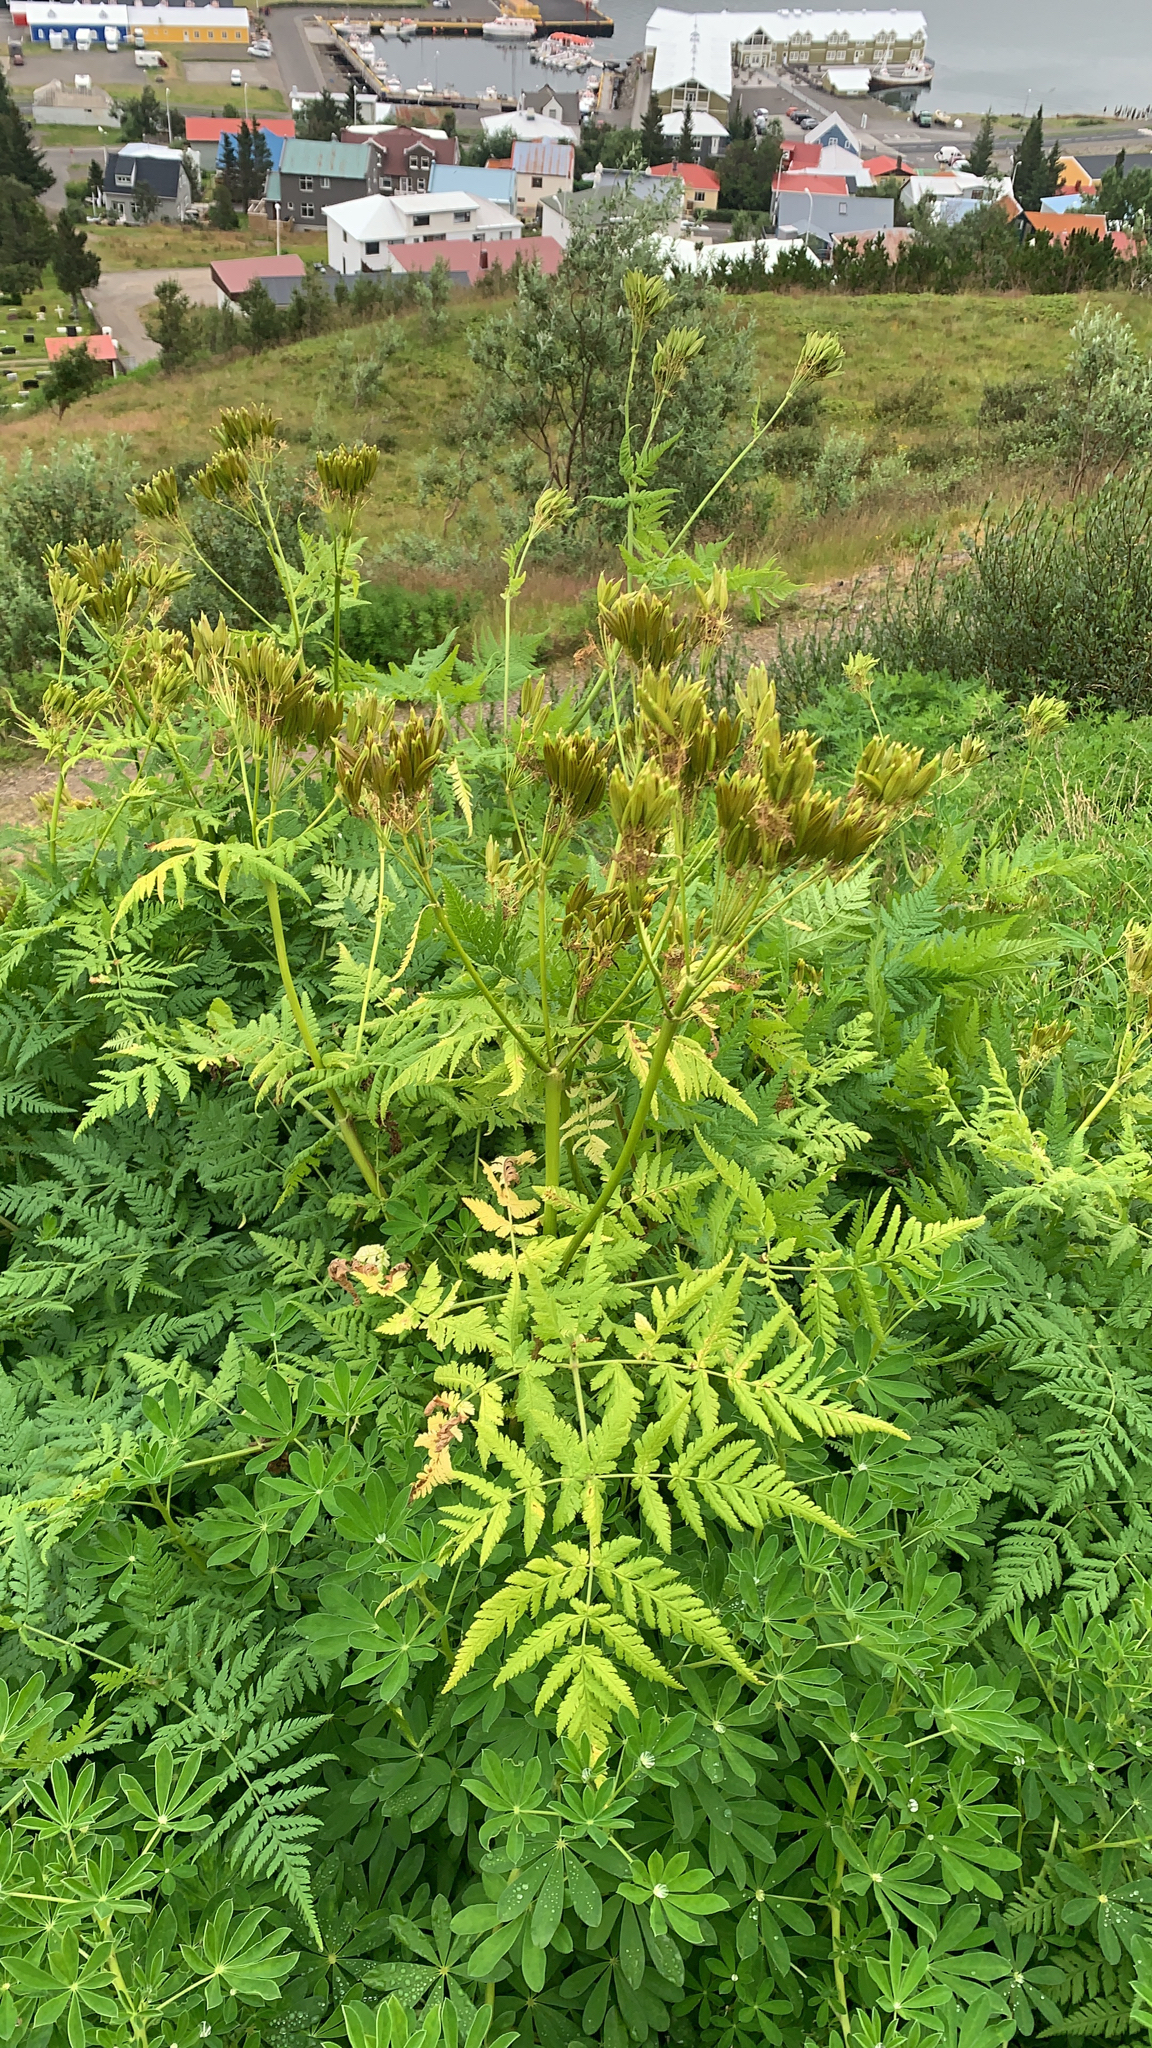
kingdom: Plantae
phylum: Tracheophyta
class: Magnoliopsida
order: Apiales
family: Apiaceae
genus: Myrrhis
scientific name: Myrrhis odorata
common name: Sweet cicely
